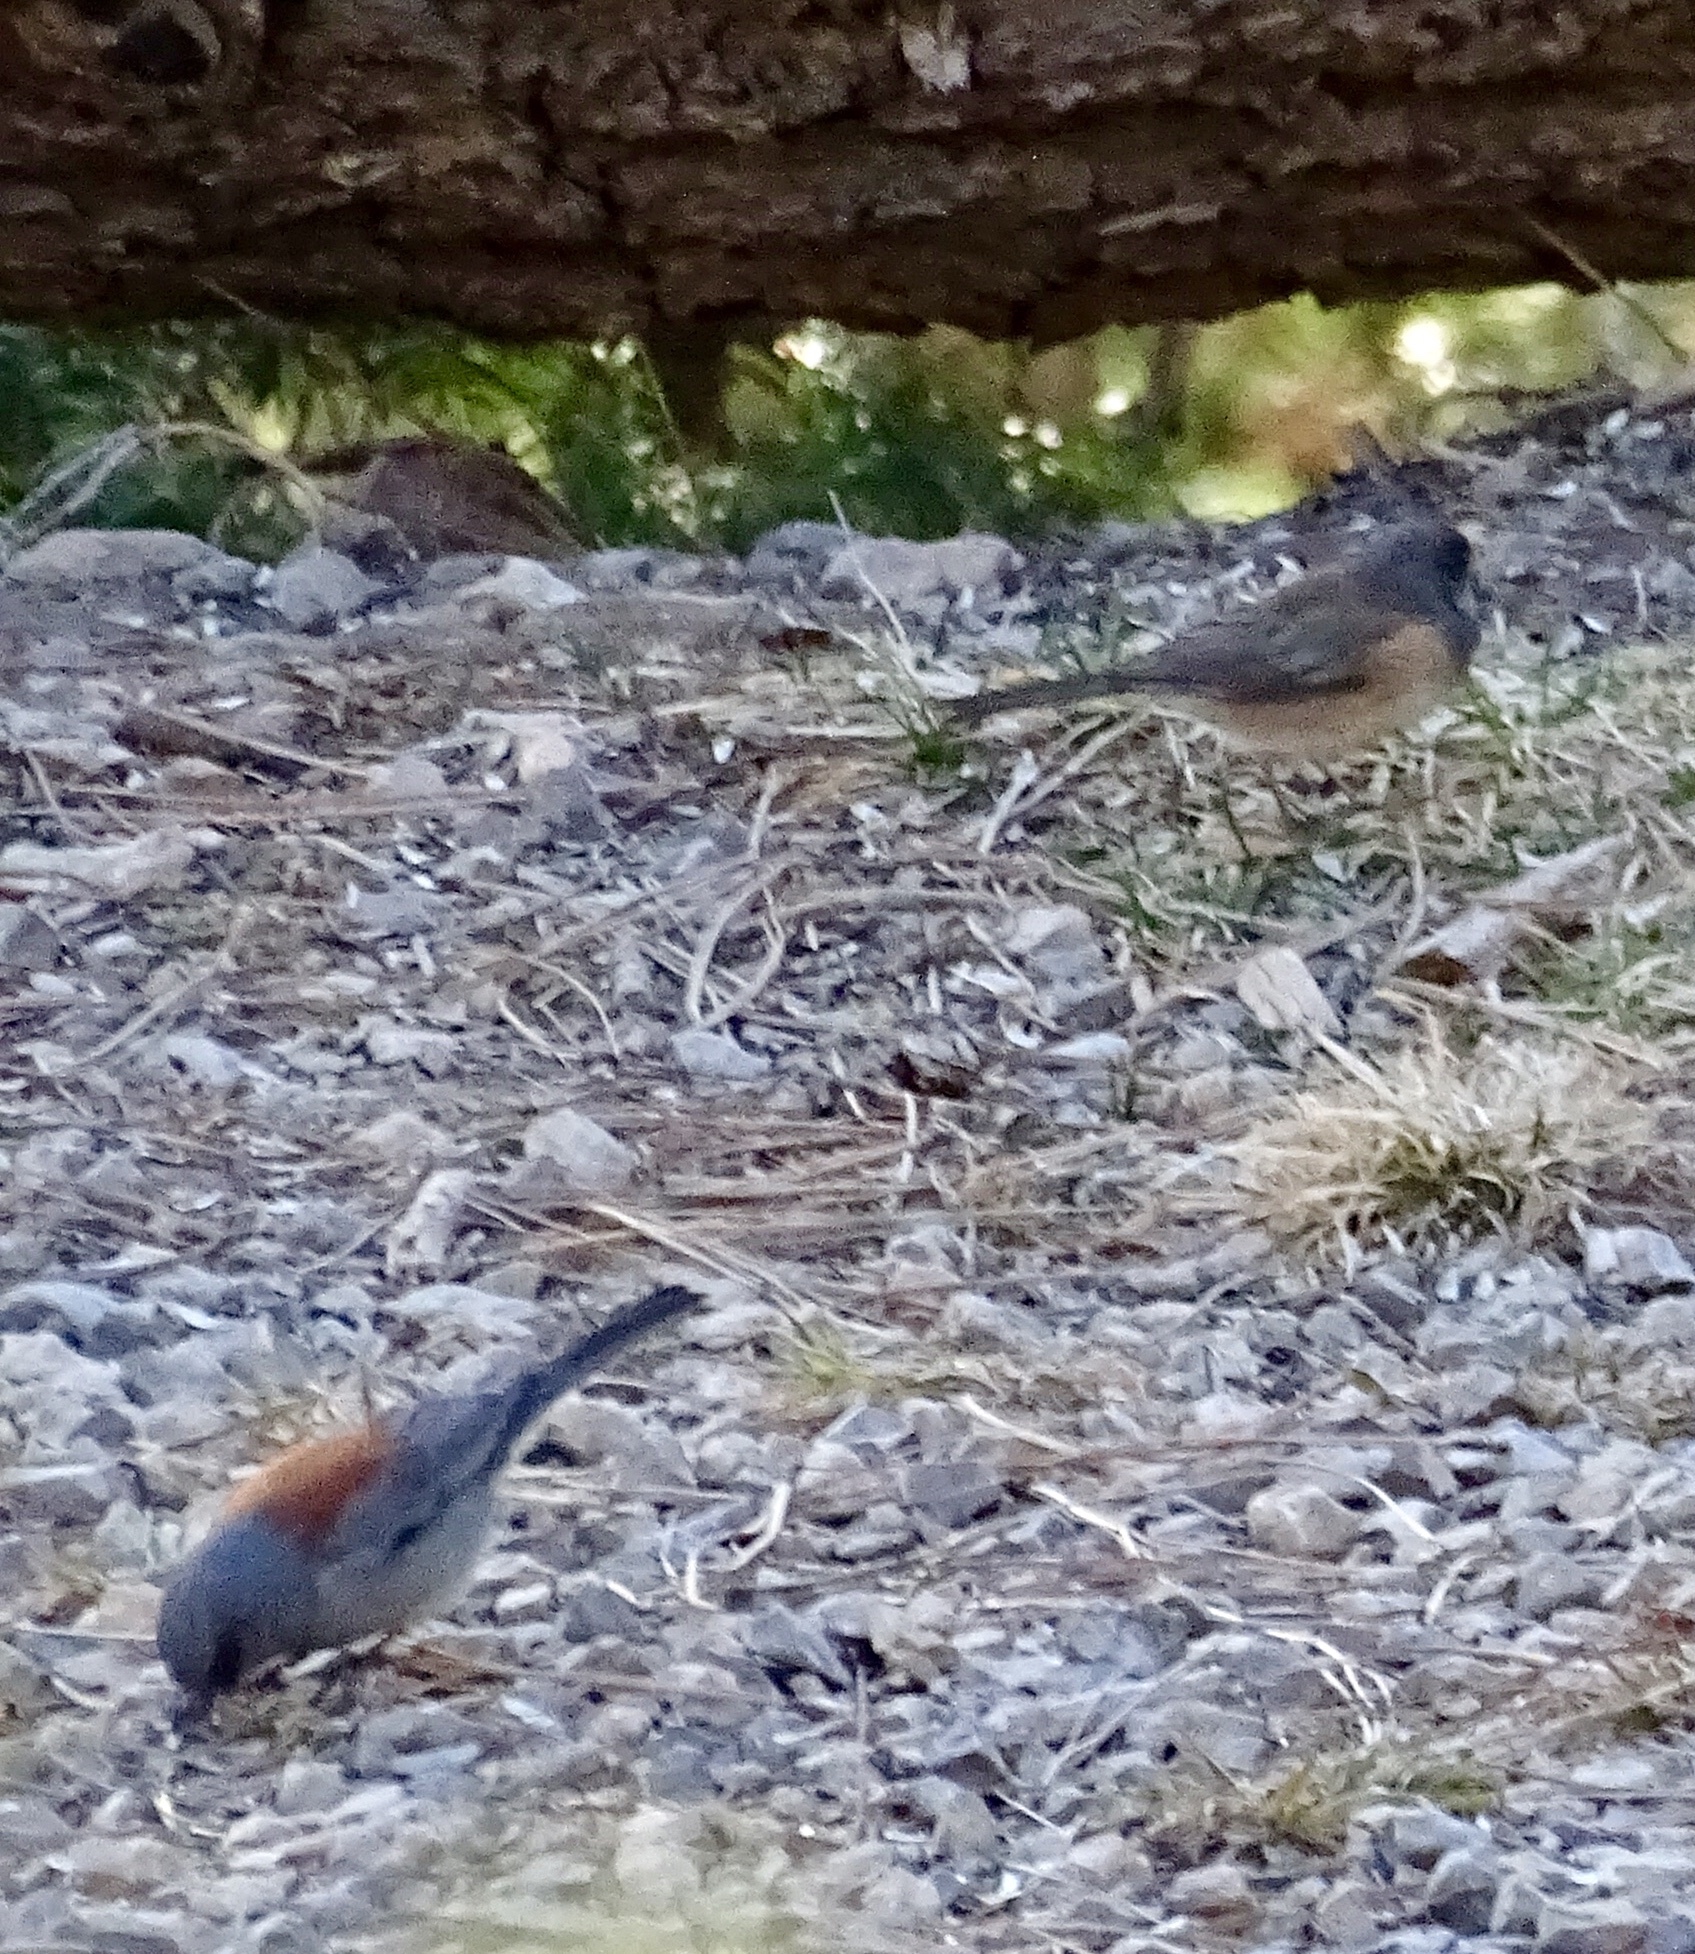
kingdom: Animalia
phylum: Chordata
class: Aves
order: Passeriformes
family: Passerellidae
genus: Junco
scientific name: Junco hyemalis
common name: Dark-eyed junco
